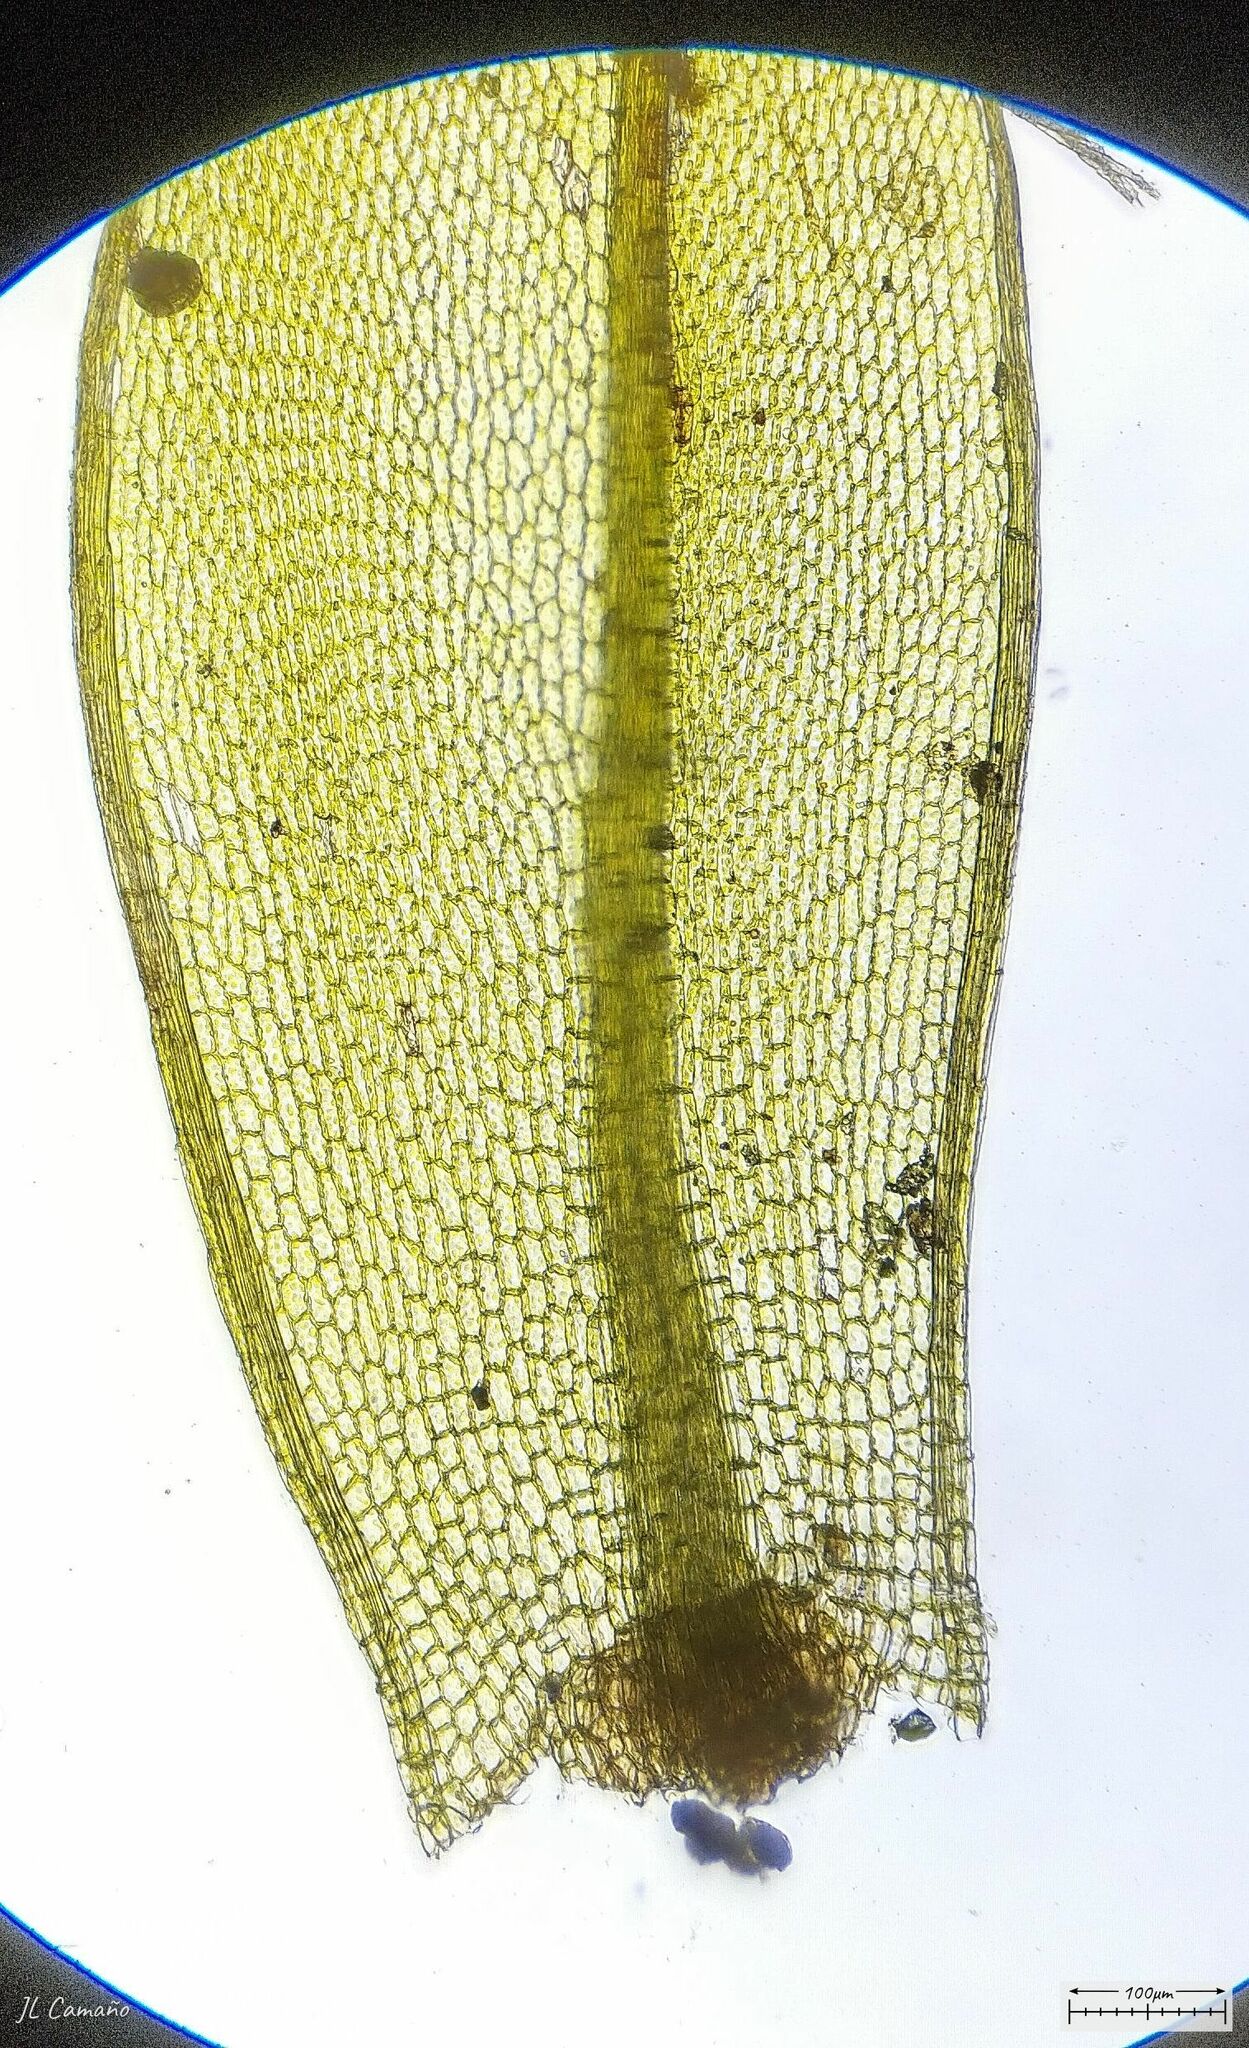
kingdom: Plantae
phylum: Bryophyta
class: Bryopsida
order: Bryales
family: Bryaceae
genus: Rosulabryum
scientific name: Rosulabryum capillare
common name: Capillary thread-moss
